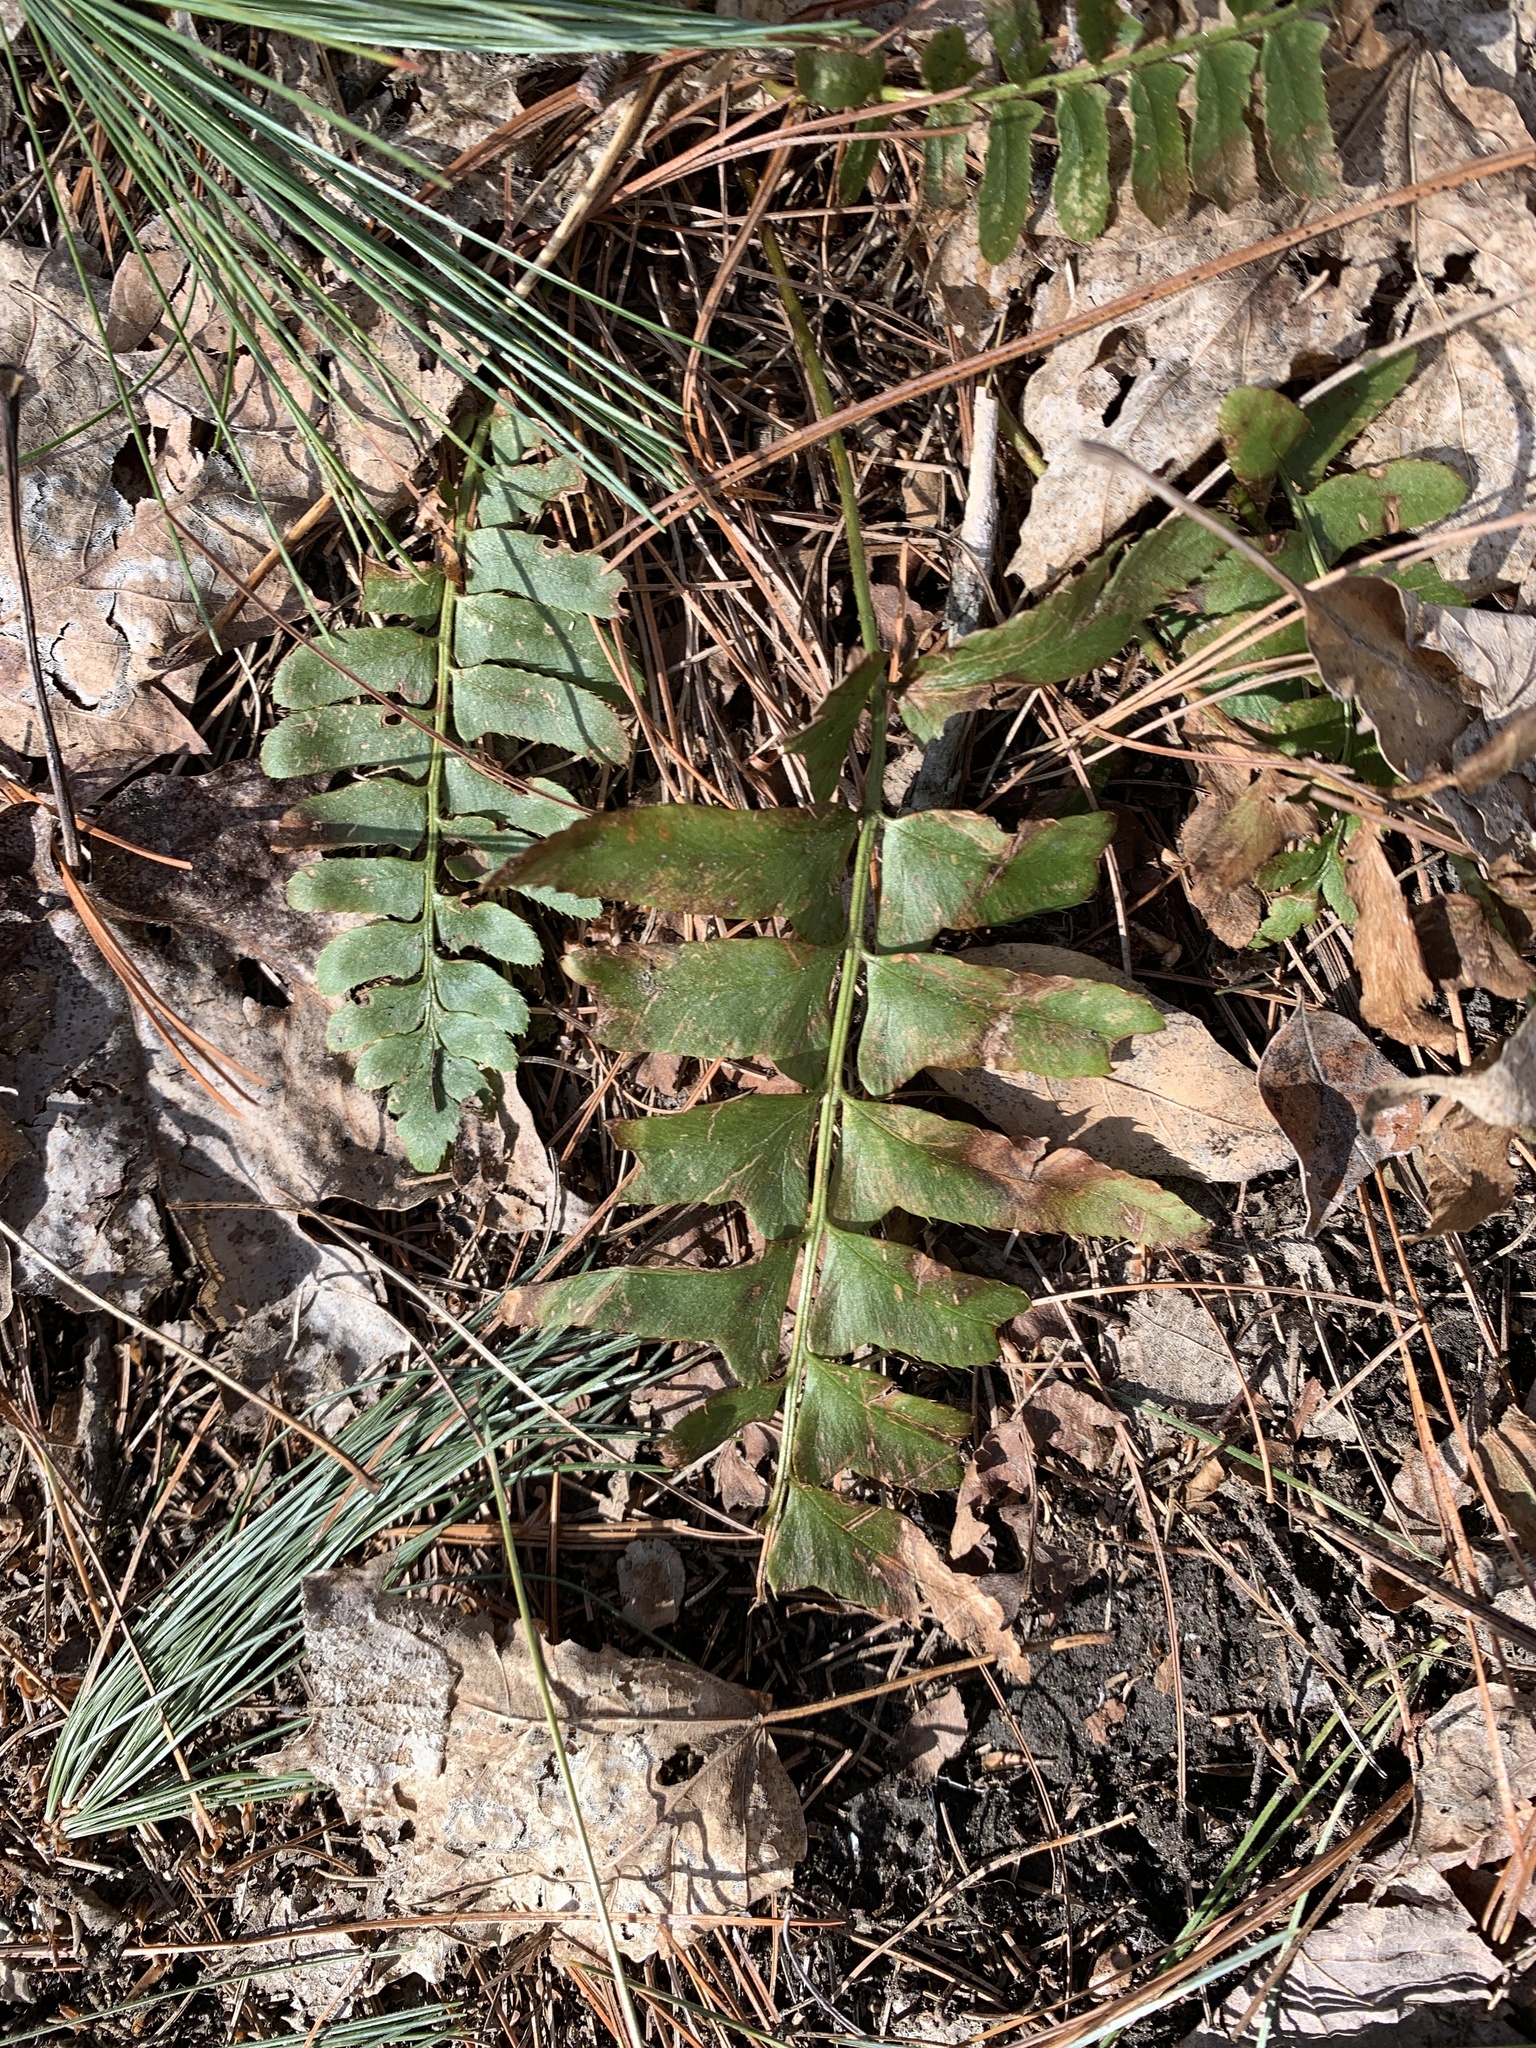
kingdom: Plantae
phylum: Tracheophyta
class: Polypodiopsida
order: Polypodiales
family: Dryopteridaceae
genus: Polystichum
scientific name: Polystichum acrostichoides
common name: Christmas fern
